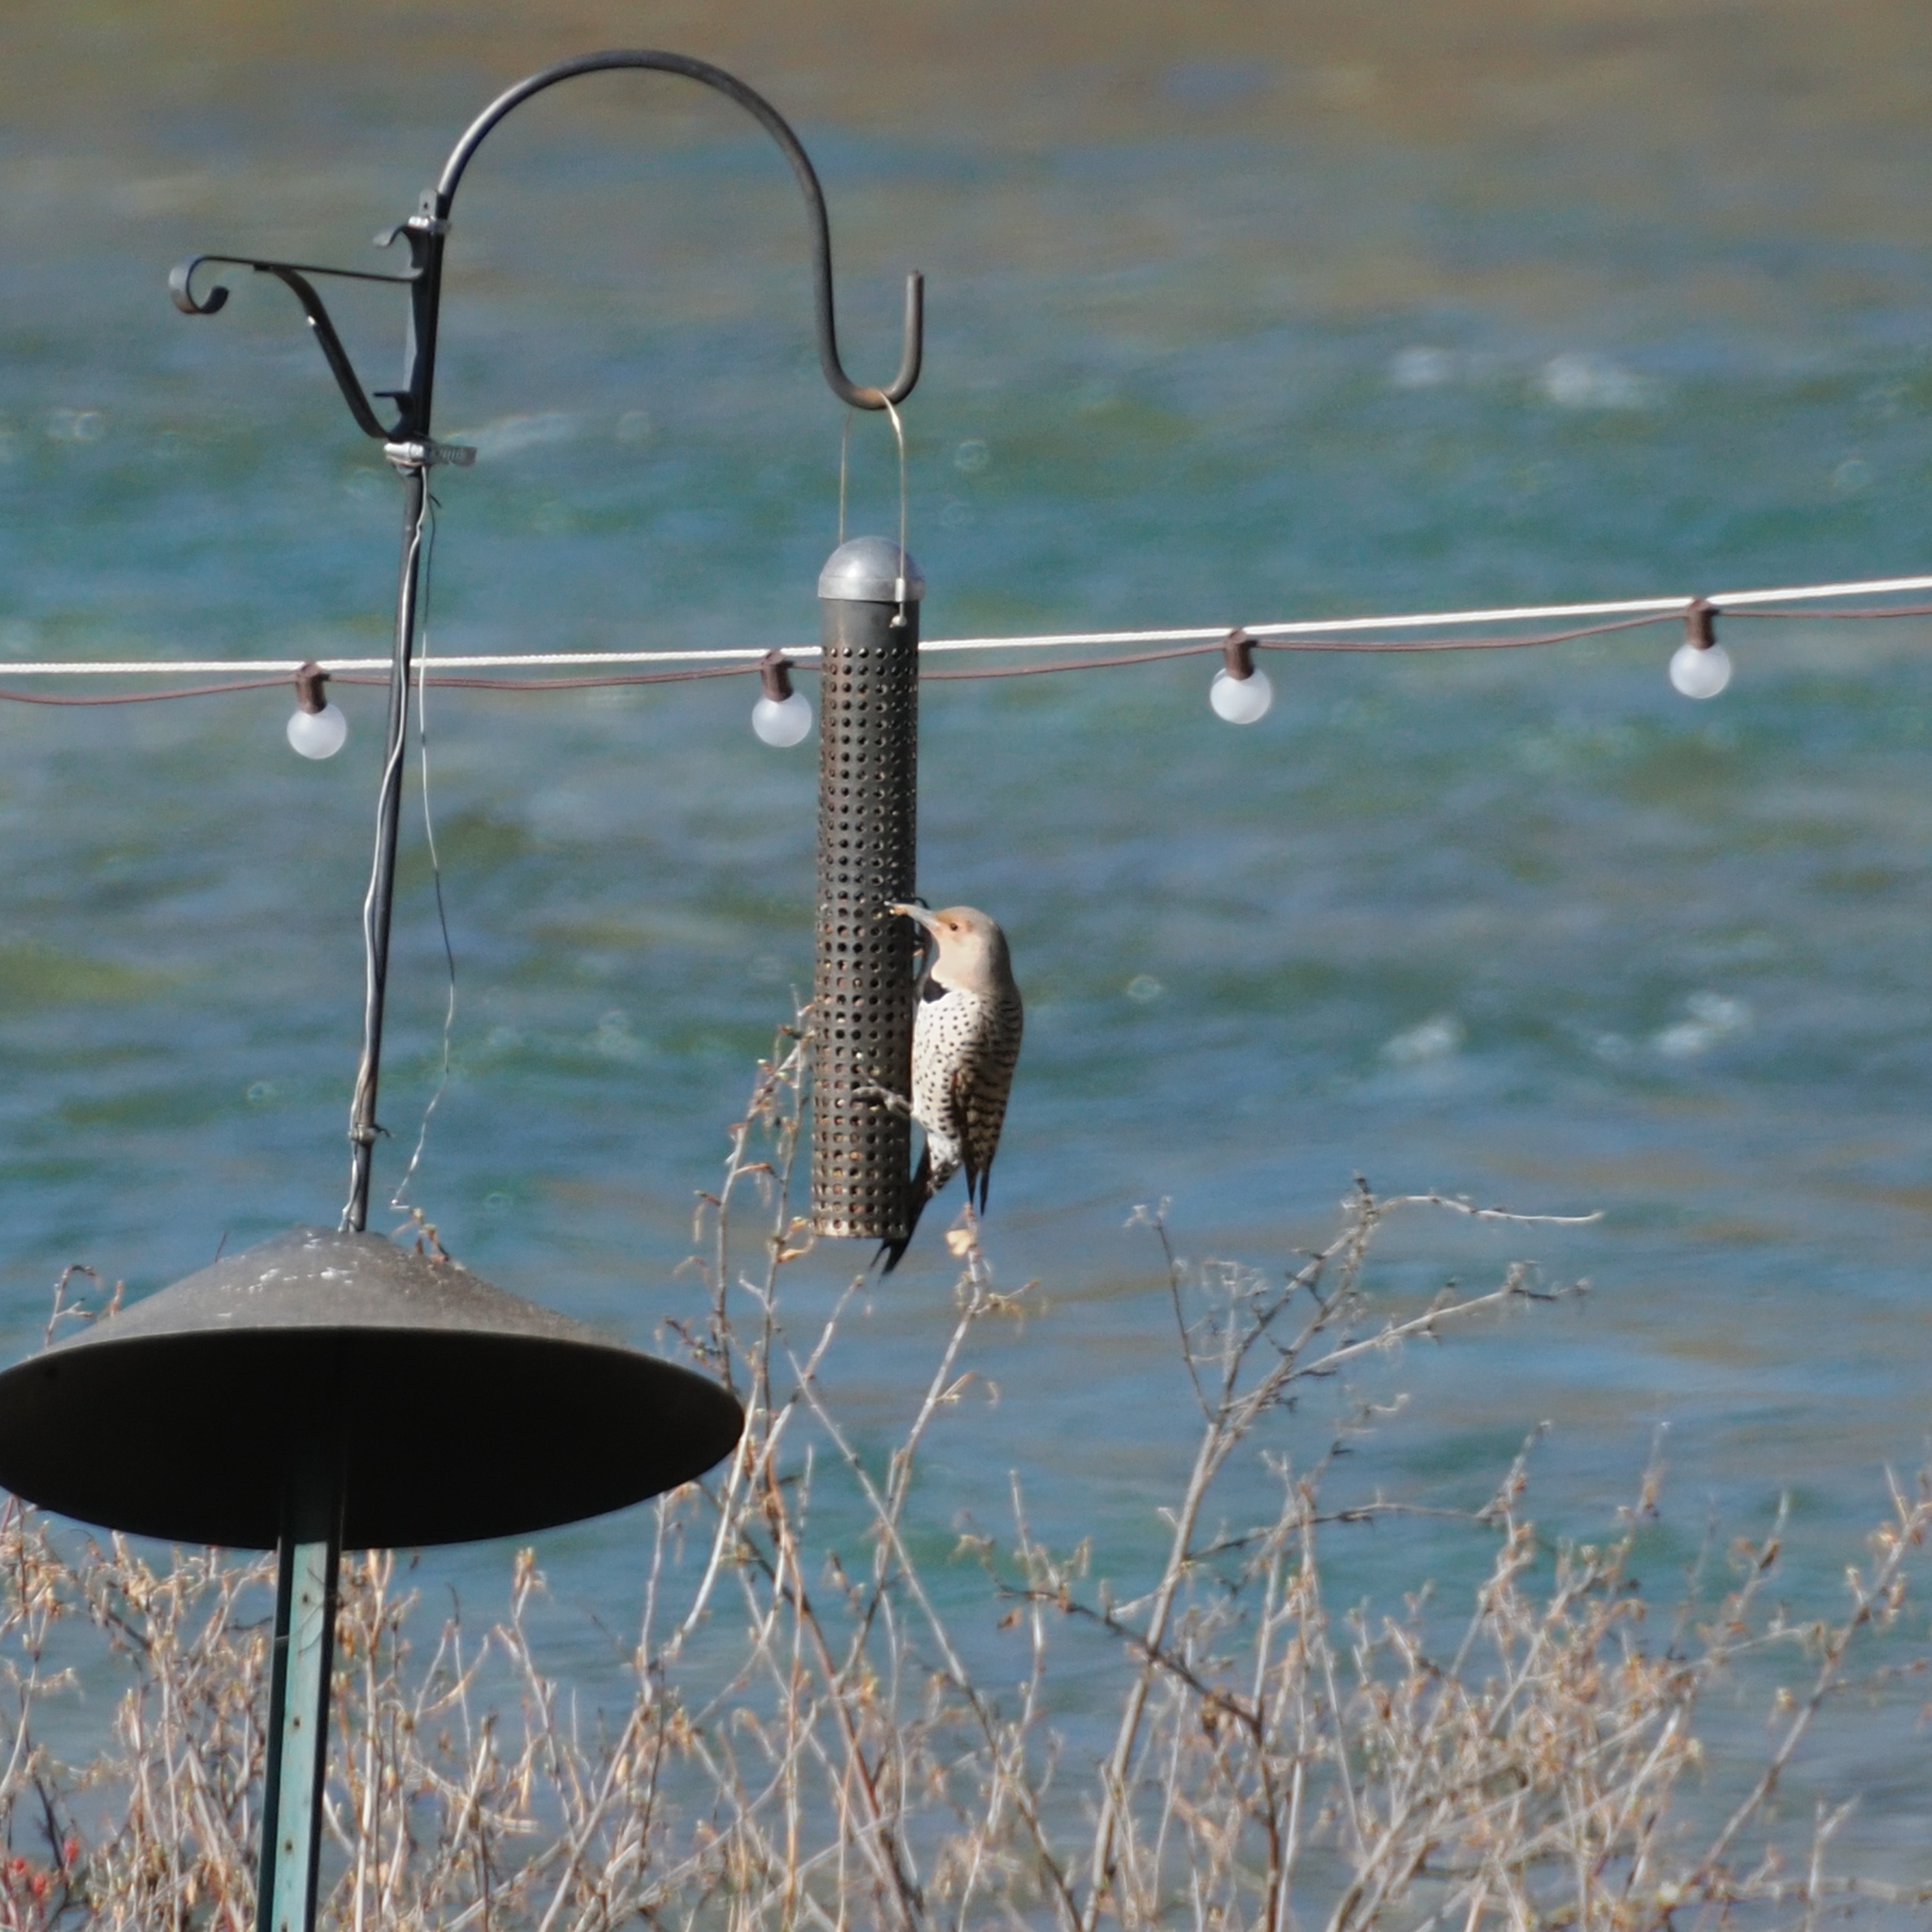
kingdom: Animalia
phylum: Chordata
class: Aves
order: Piciformes
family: Picidae
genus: Colaptes
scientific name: Colaptes auratus
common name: Northern flicker
